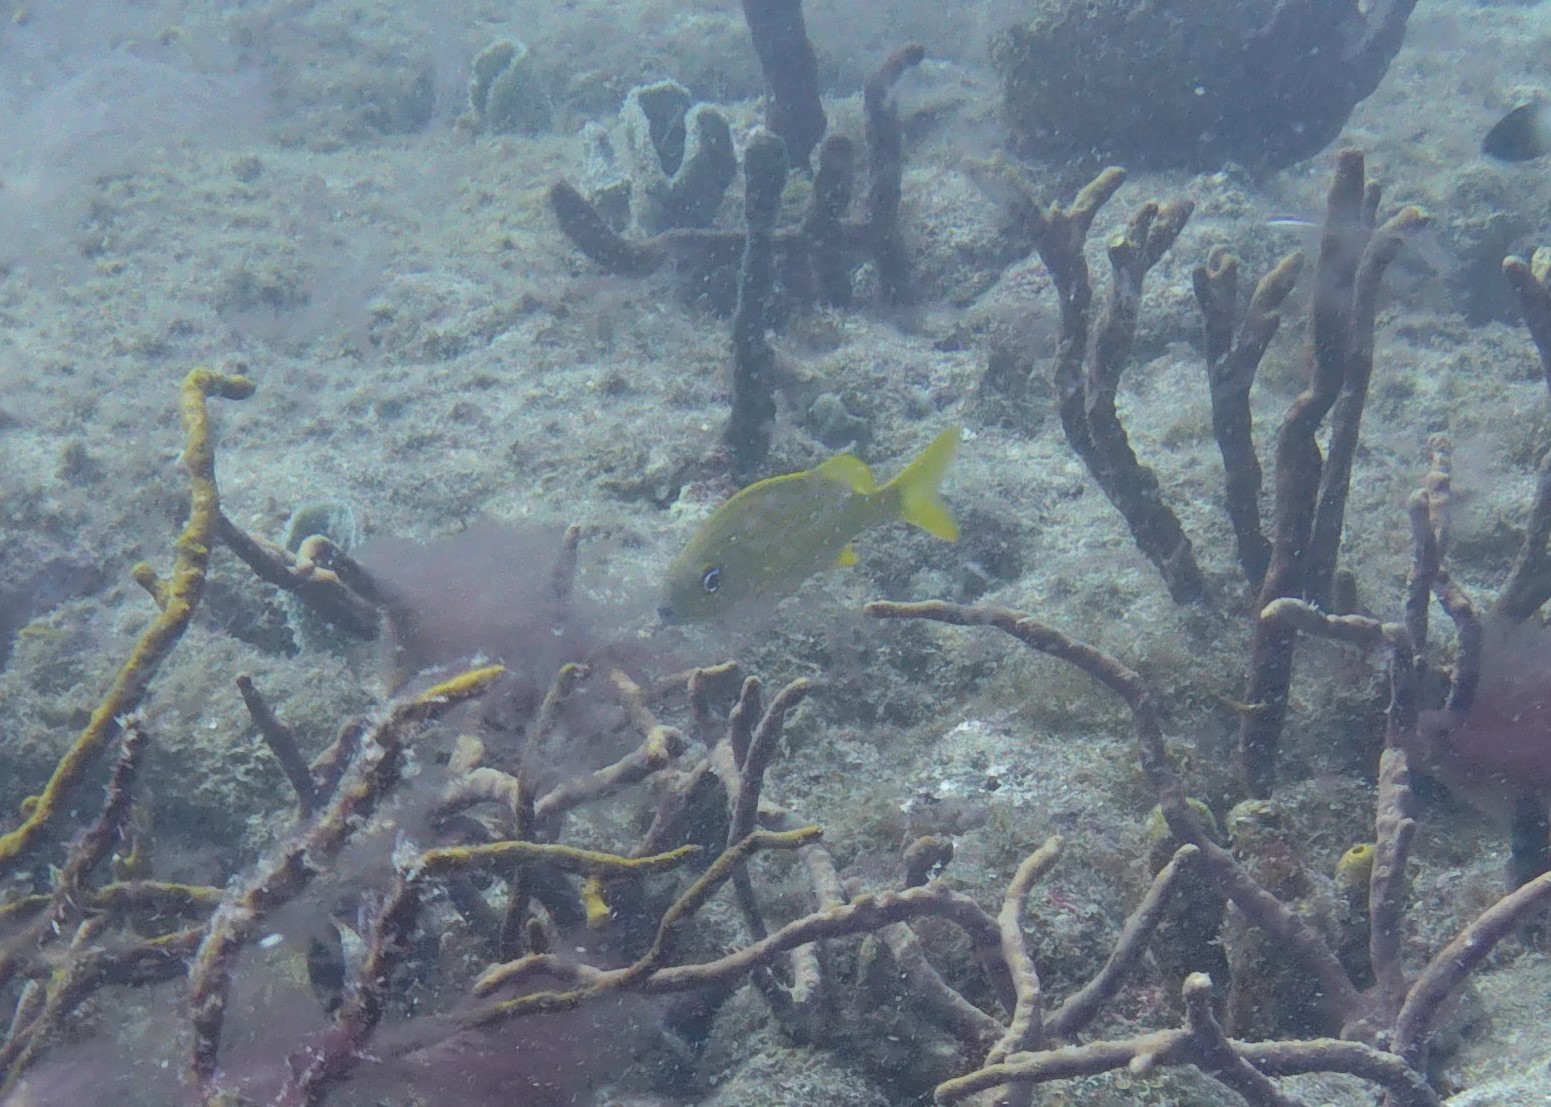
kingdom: Animalia
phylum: Chordata
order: Perciformes
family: Haemulidae
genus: Haemulon
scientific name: Haemulon flavolineatum
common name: French grunt
